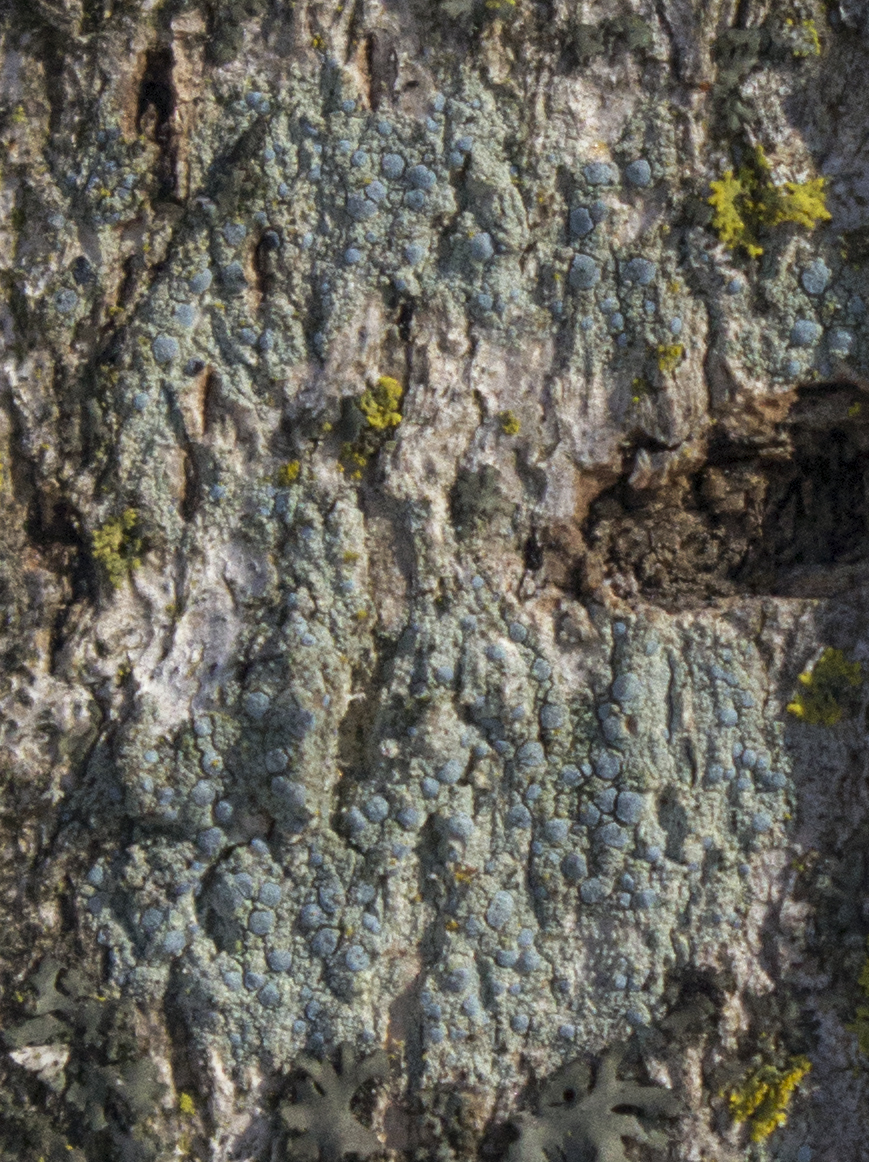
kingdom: Fungi
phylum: Ascomycota
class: Arthoniomycetes
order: Arthoniales
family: Chrysotrichaceae
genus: Chrysothrix
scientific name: Chrysothrix caesia
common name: Frosted comma lichen
